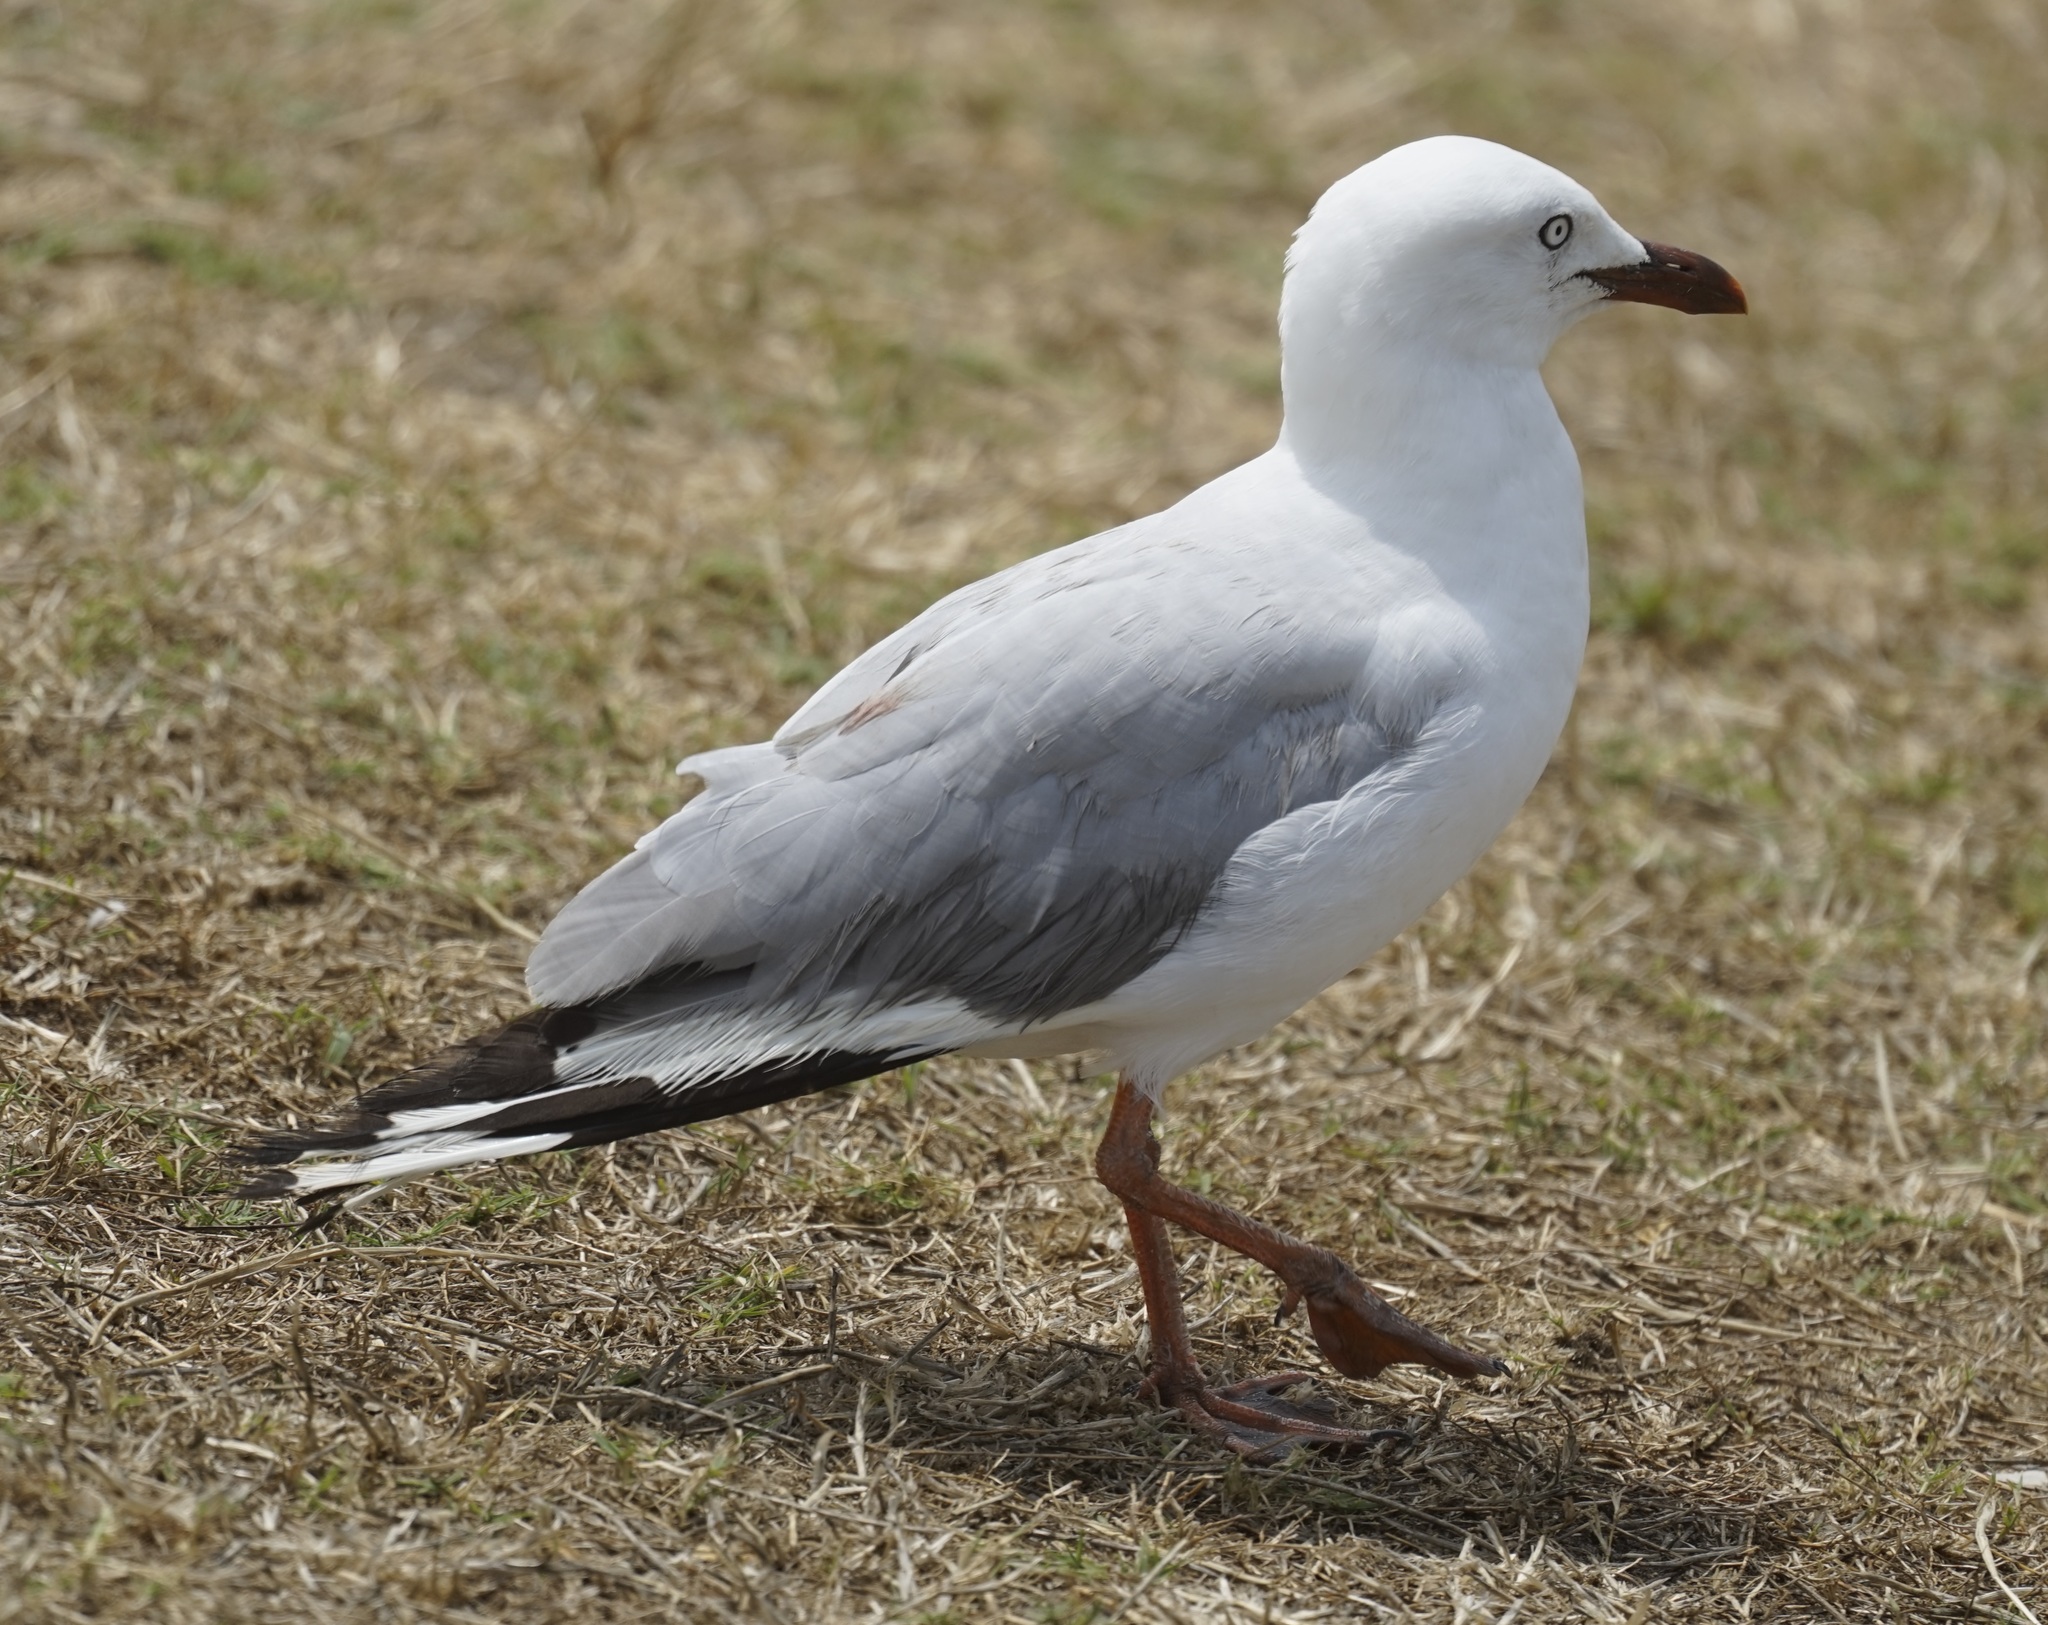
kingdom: Animalia
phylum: Chordata
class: Aves
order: Charadriiformes
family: Laridae
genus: Chroicocephalus
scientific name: Chroicocephalus novaehollandiae
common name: Silver gull
